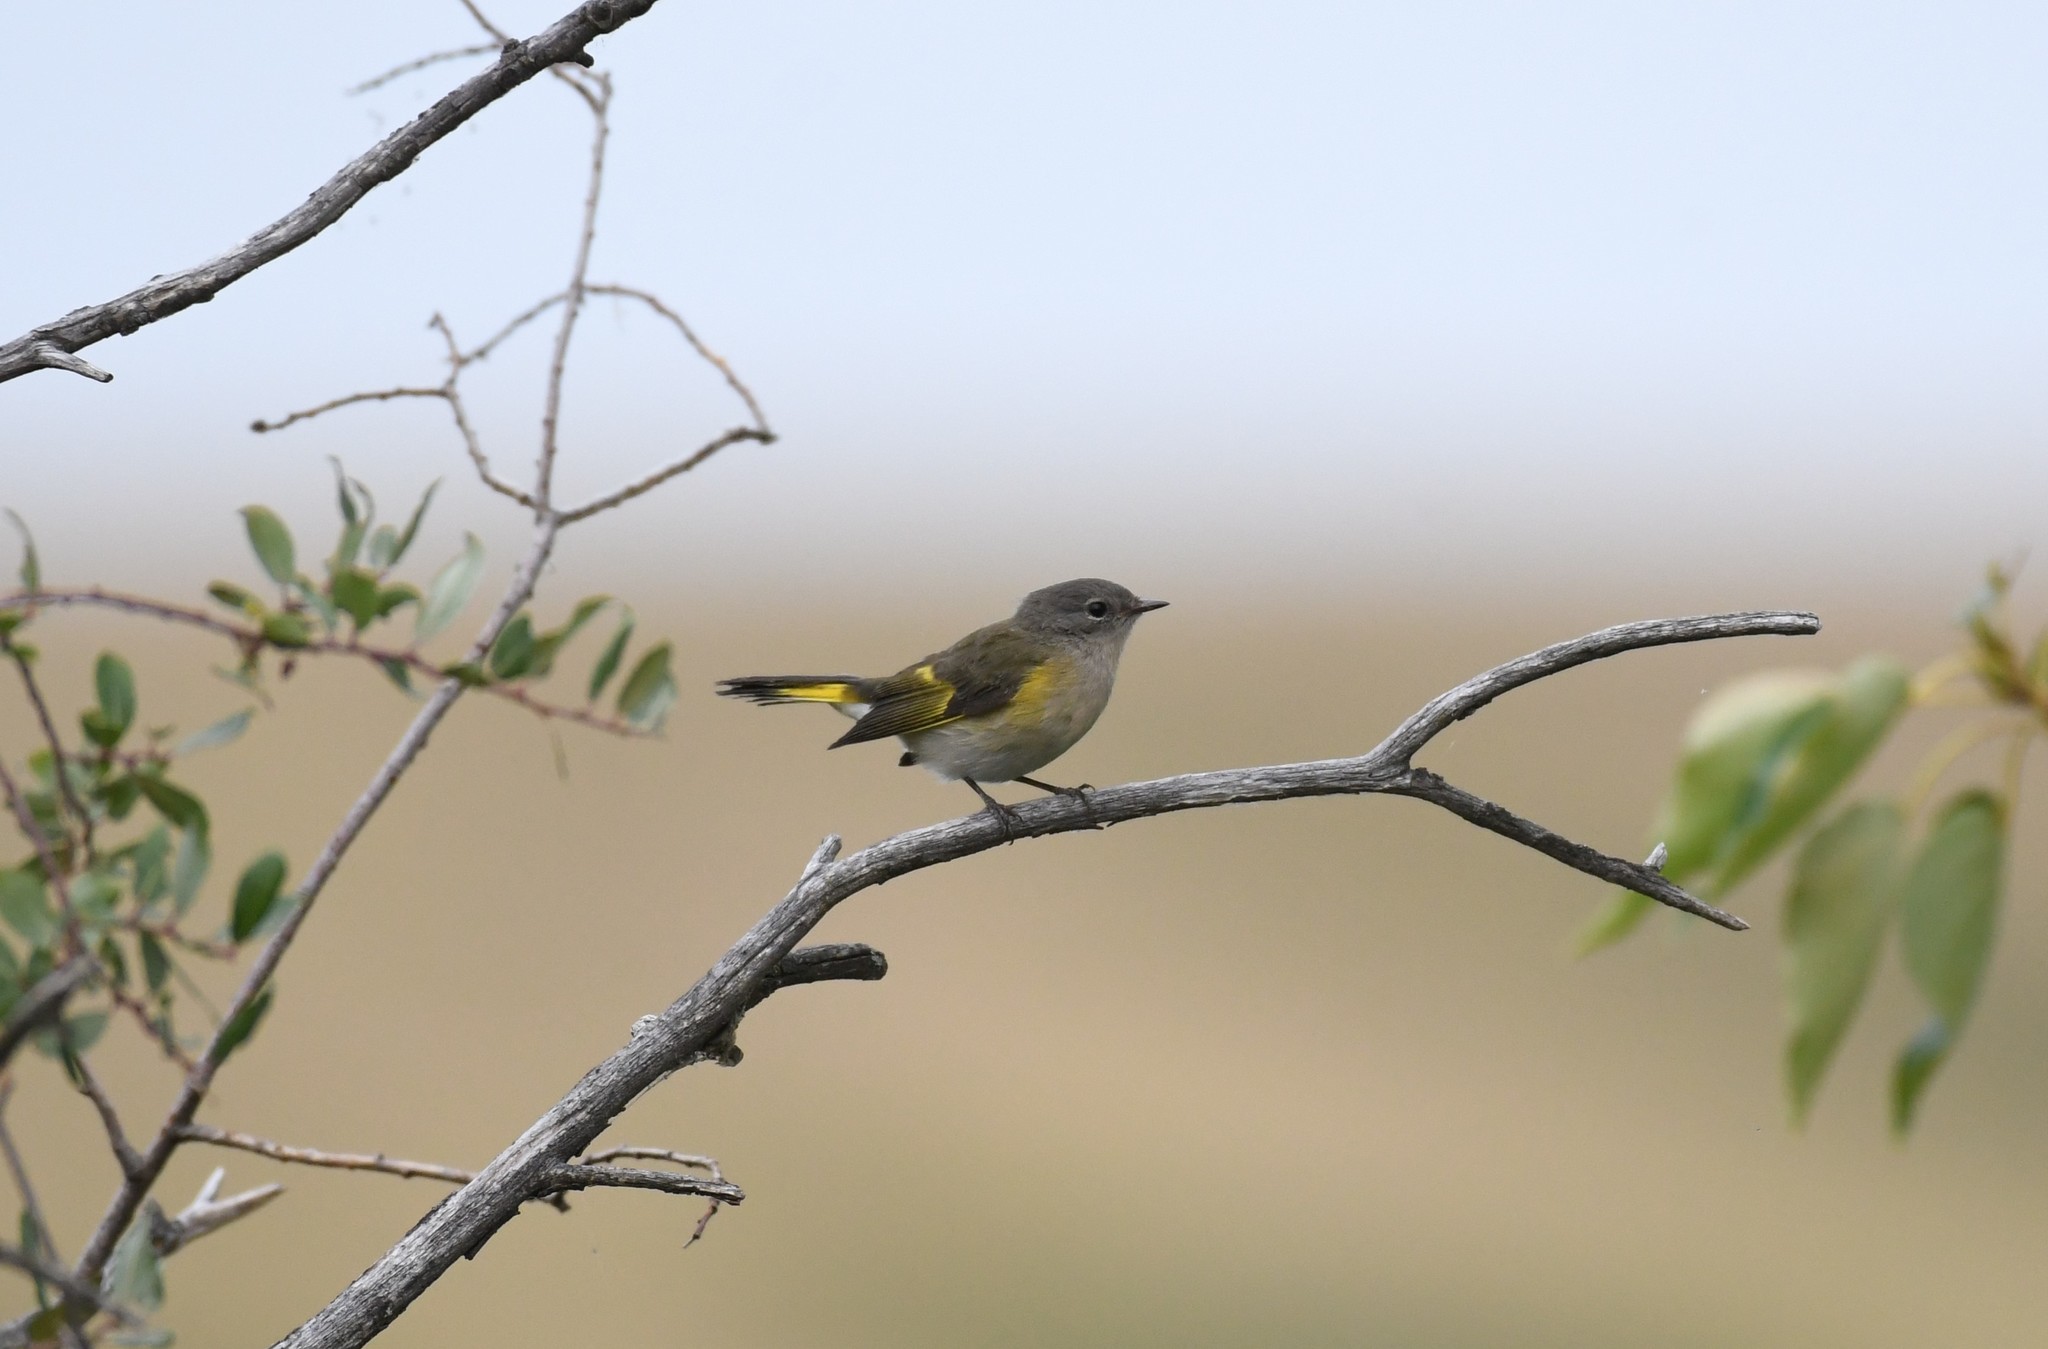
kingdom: Animalia
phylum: Chordata
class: Aves
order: Passeriformes
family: Parulidae
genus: Setophaga
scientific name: Setophaga ruticilla
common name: American redstart
